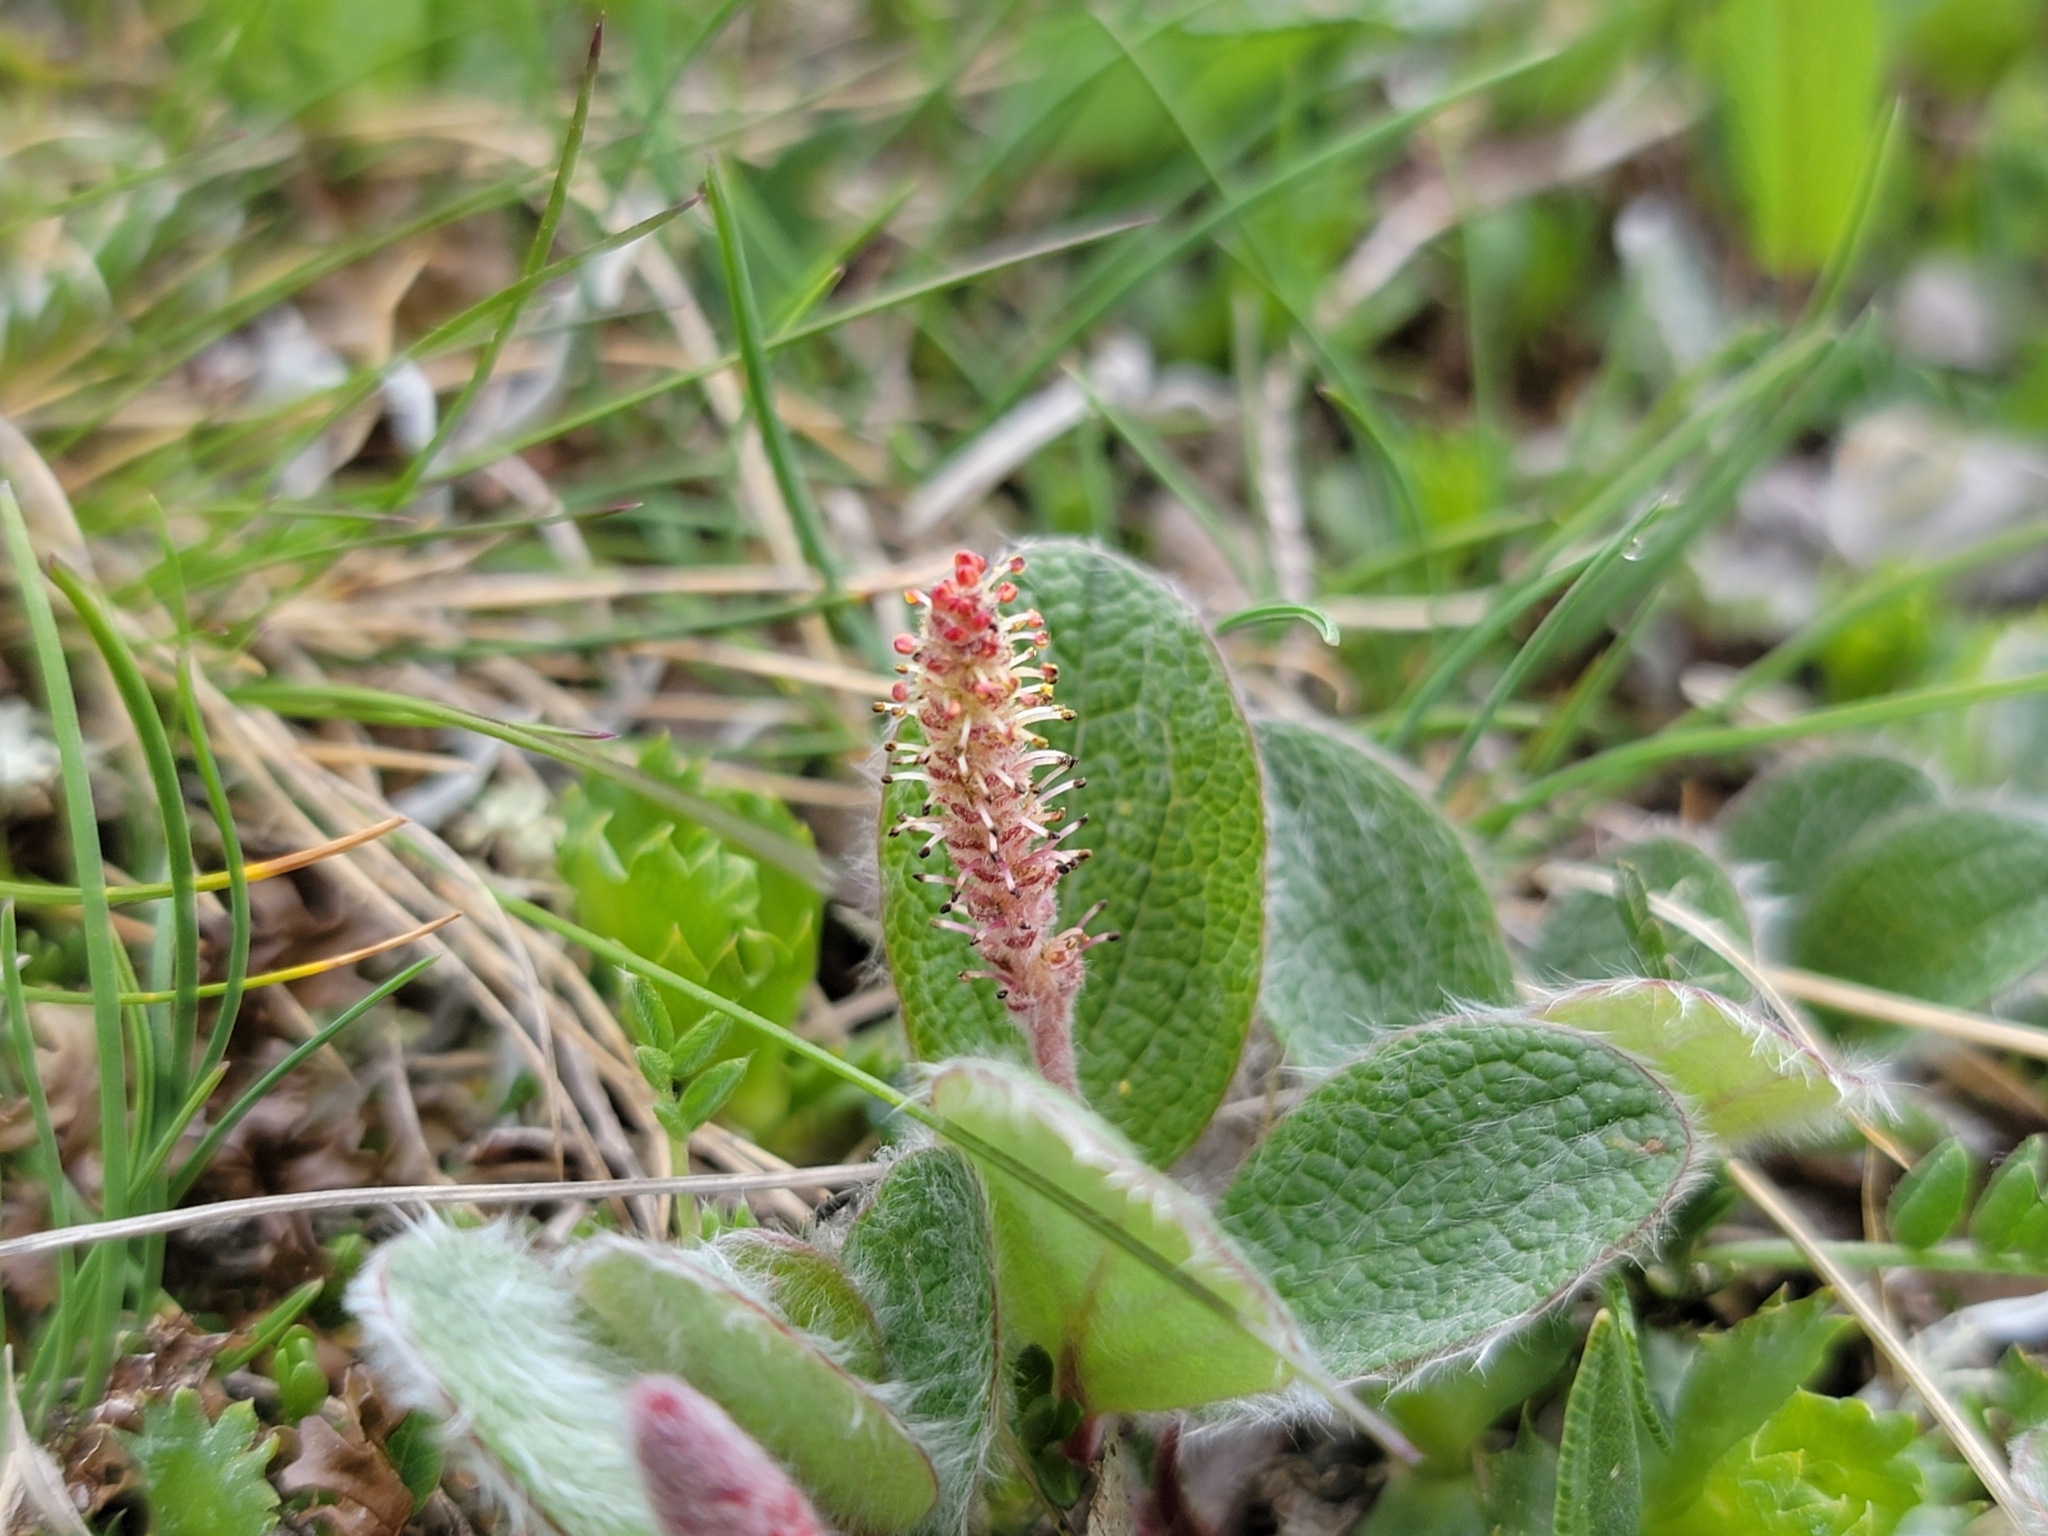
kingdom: Plantae
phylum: Tracheophyta
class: Magnoliopsida
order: Malpighiales
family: Salicaceae
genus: Salix
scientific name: Salix reticulata
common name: Net-leaved willow
